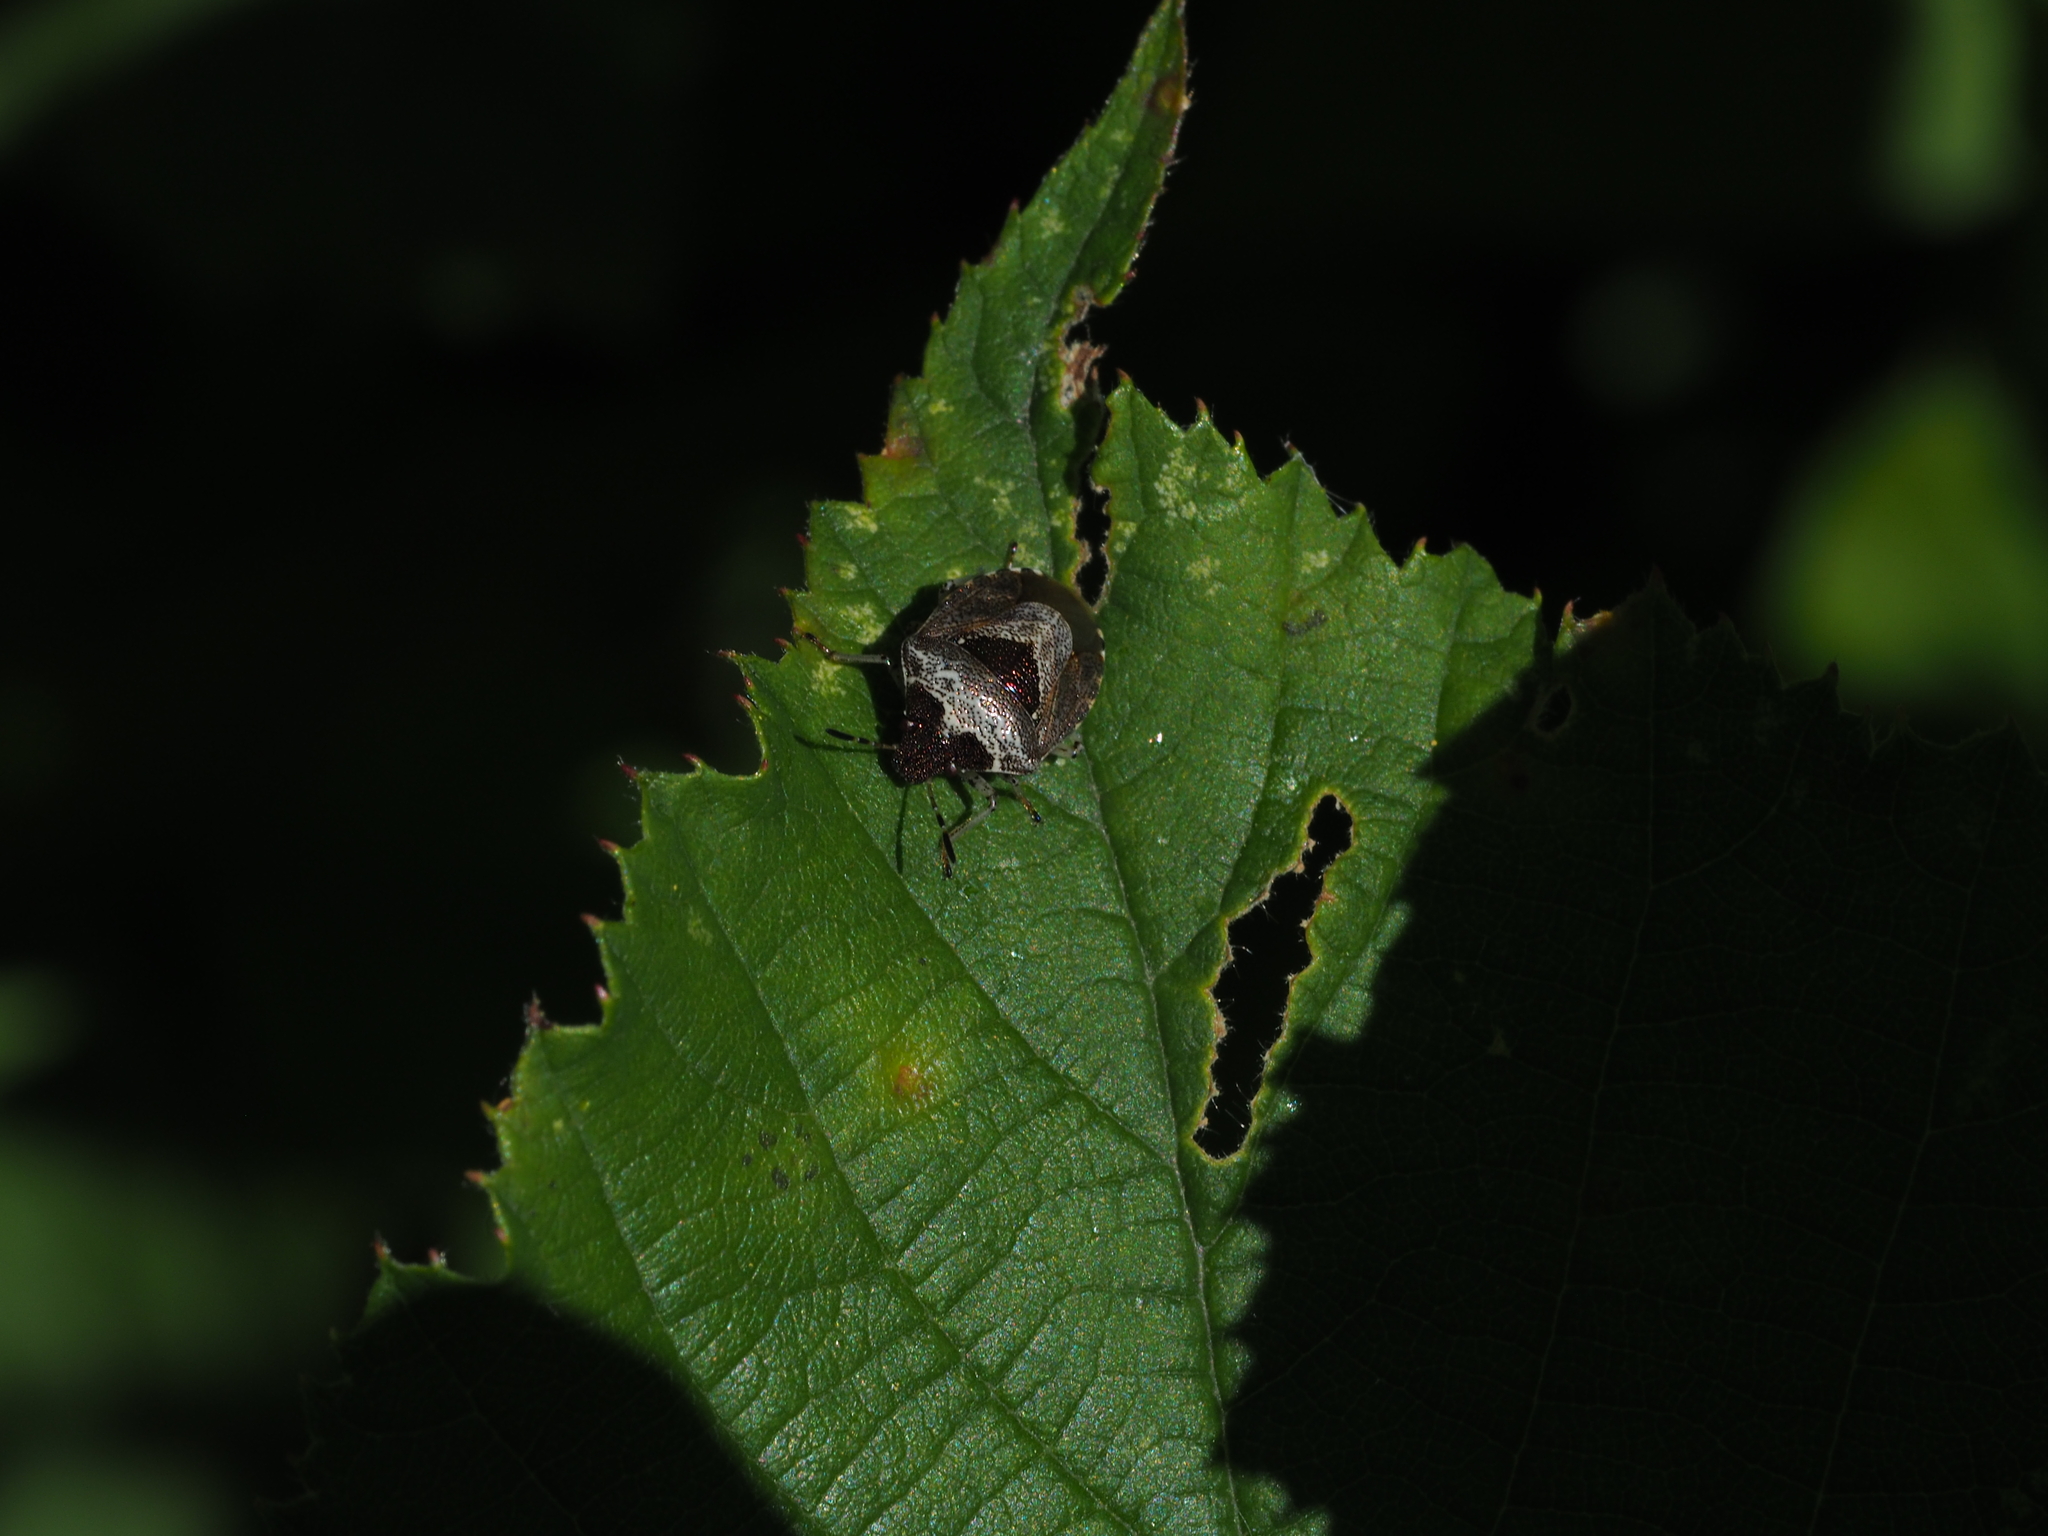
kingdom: Animalia
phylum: Arthropoda
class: Insecta
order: Hemiptera
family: Pentatomidae
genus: Eysarcoris
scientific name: Eysarcoris venustissimus
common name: Woundwort shieldbug
